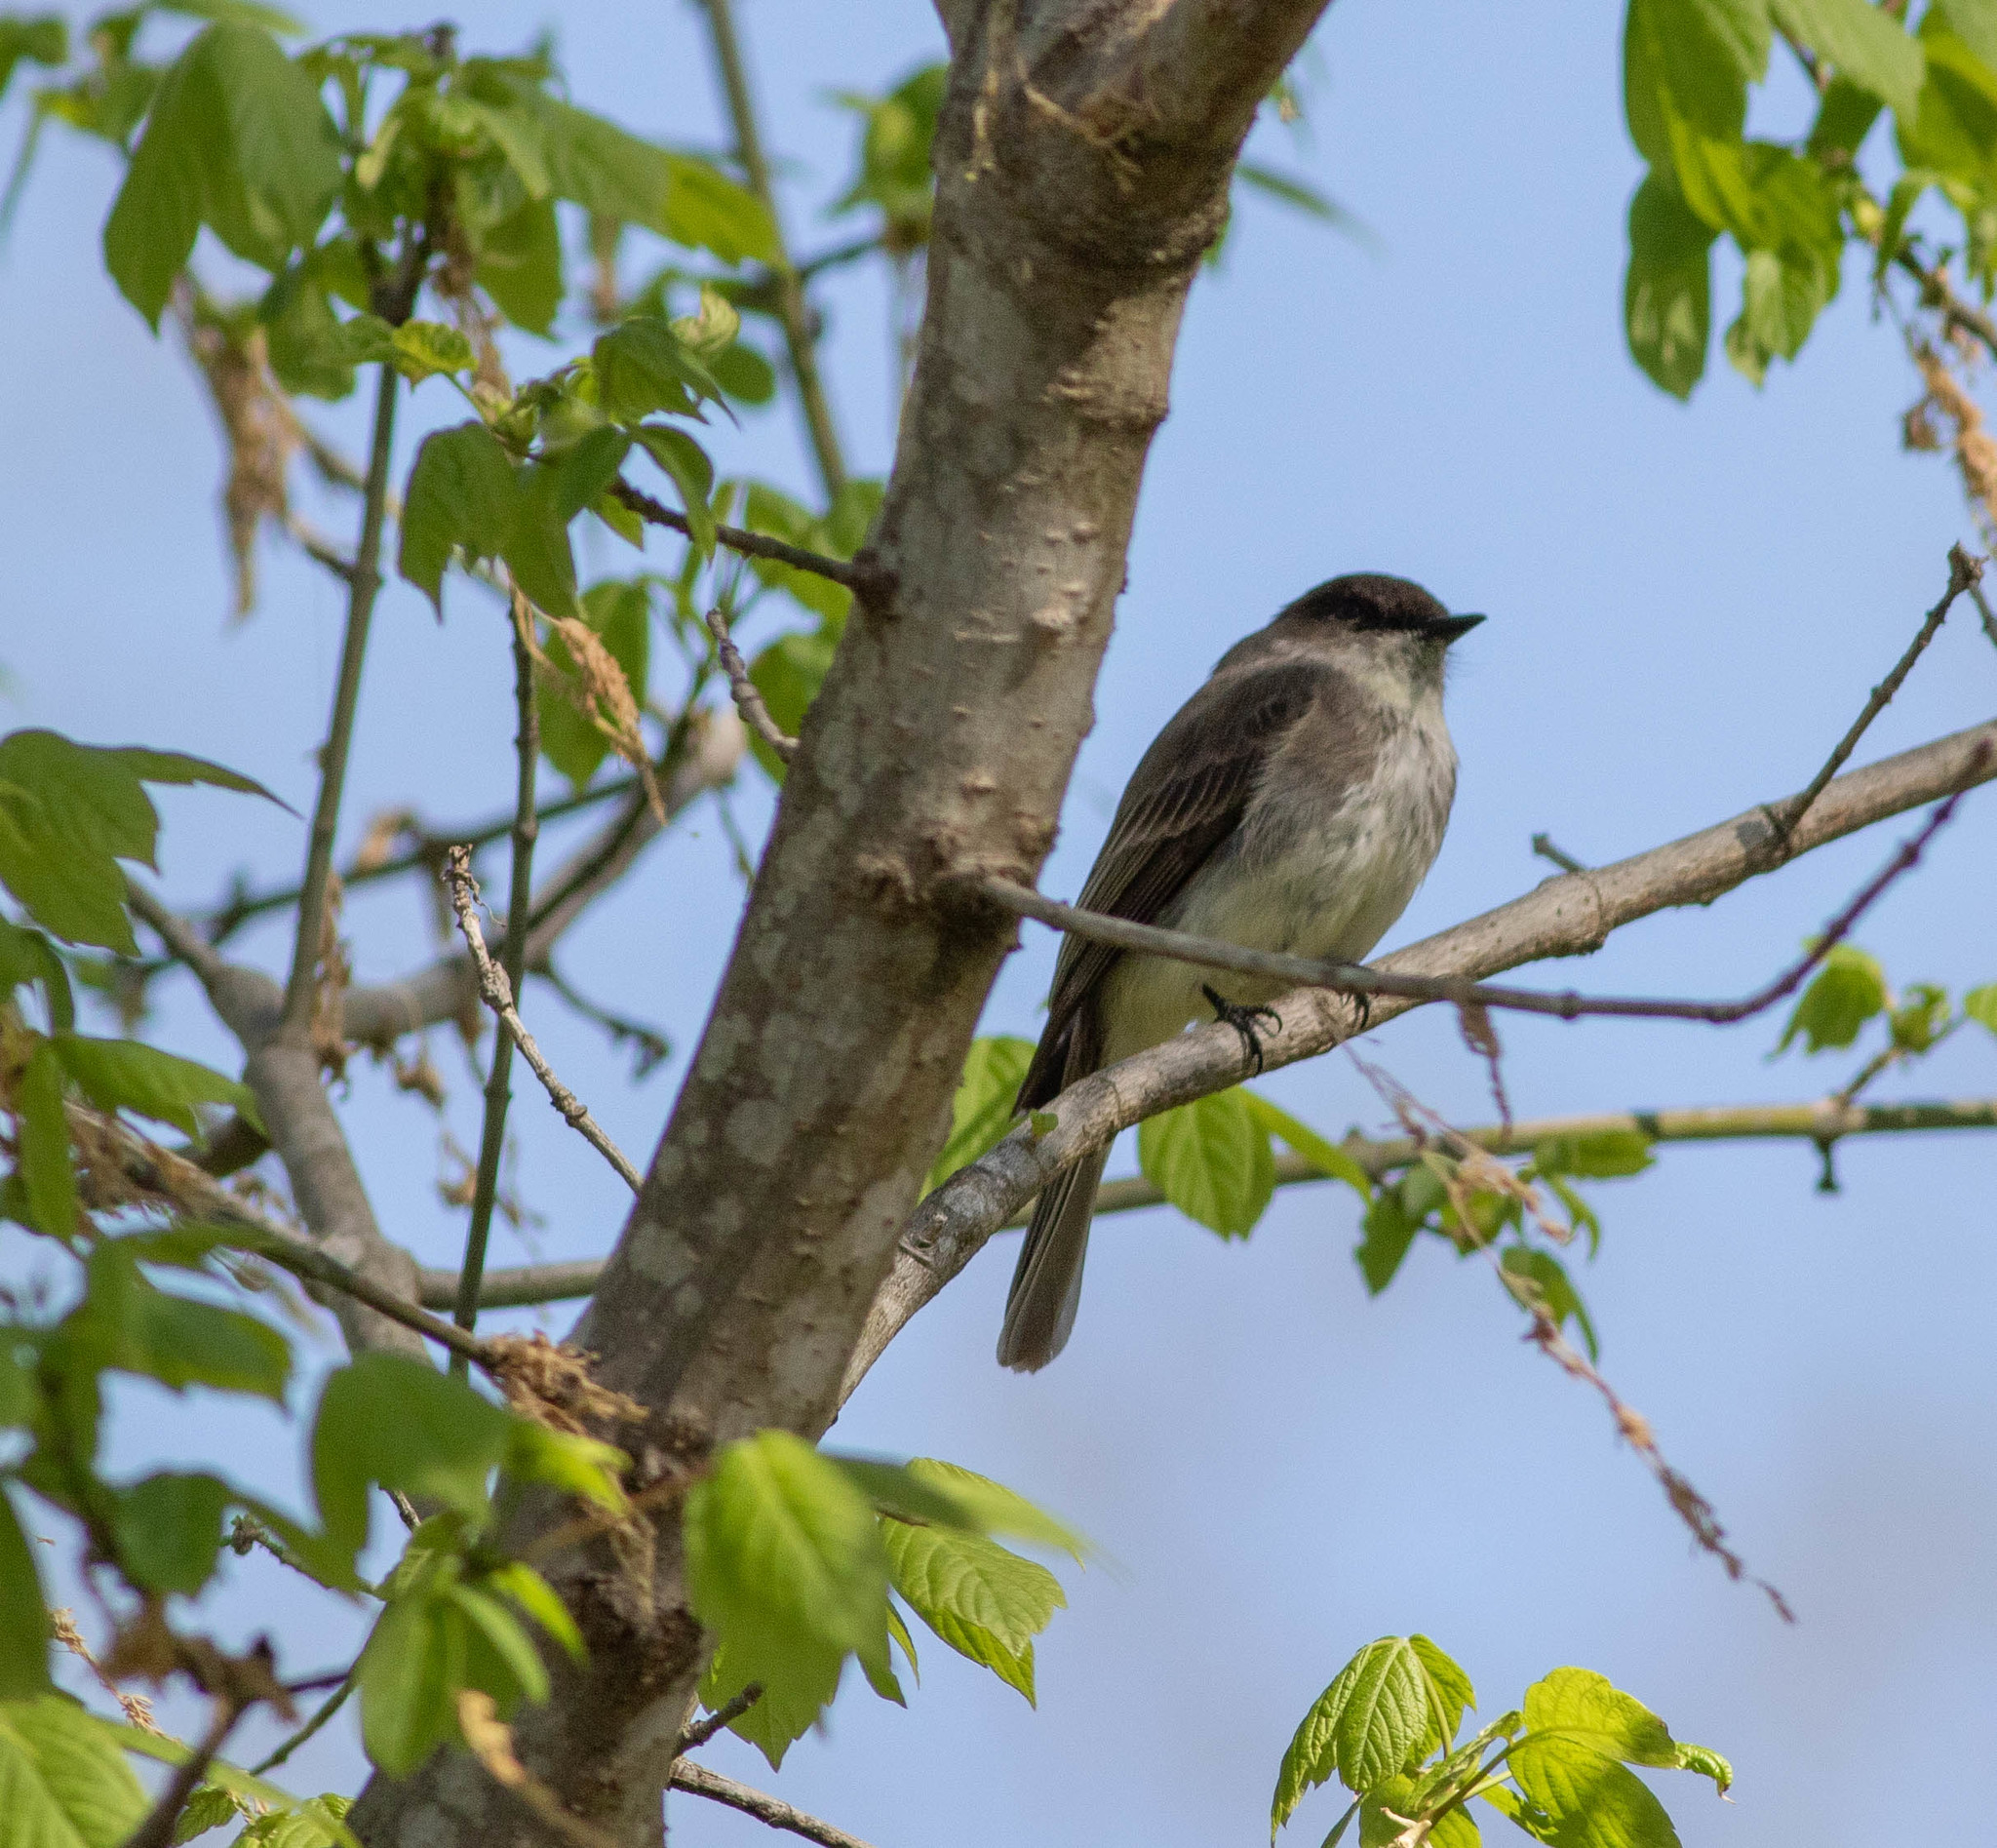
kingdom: Animalia
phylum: Chordata
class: Aves
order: Passeriformes
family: Tyrannidae
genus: Sayornis
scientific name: Sayornis phoebe
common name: Eastern phoebe
